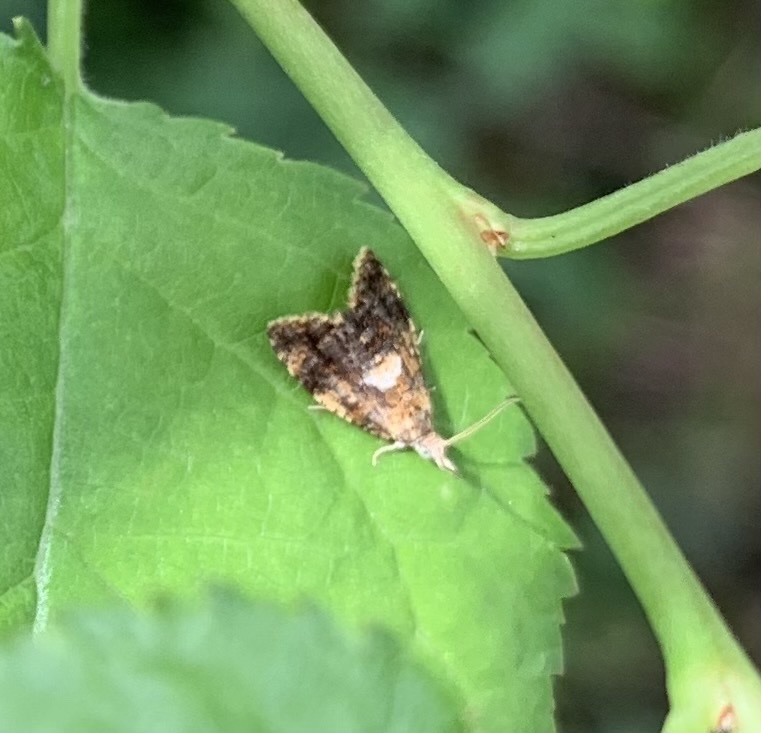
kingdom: Animalia
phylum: Arthropoda
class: Insecta
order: Lepidoptera
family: Tortricidae
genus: Pseudargyrotoza
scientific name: Pseudargyrotoza conwagana
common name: Yellow-spot twist
